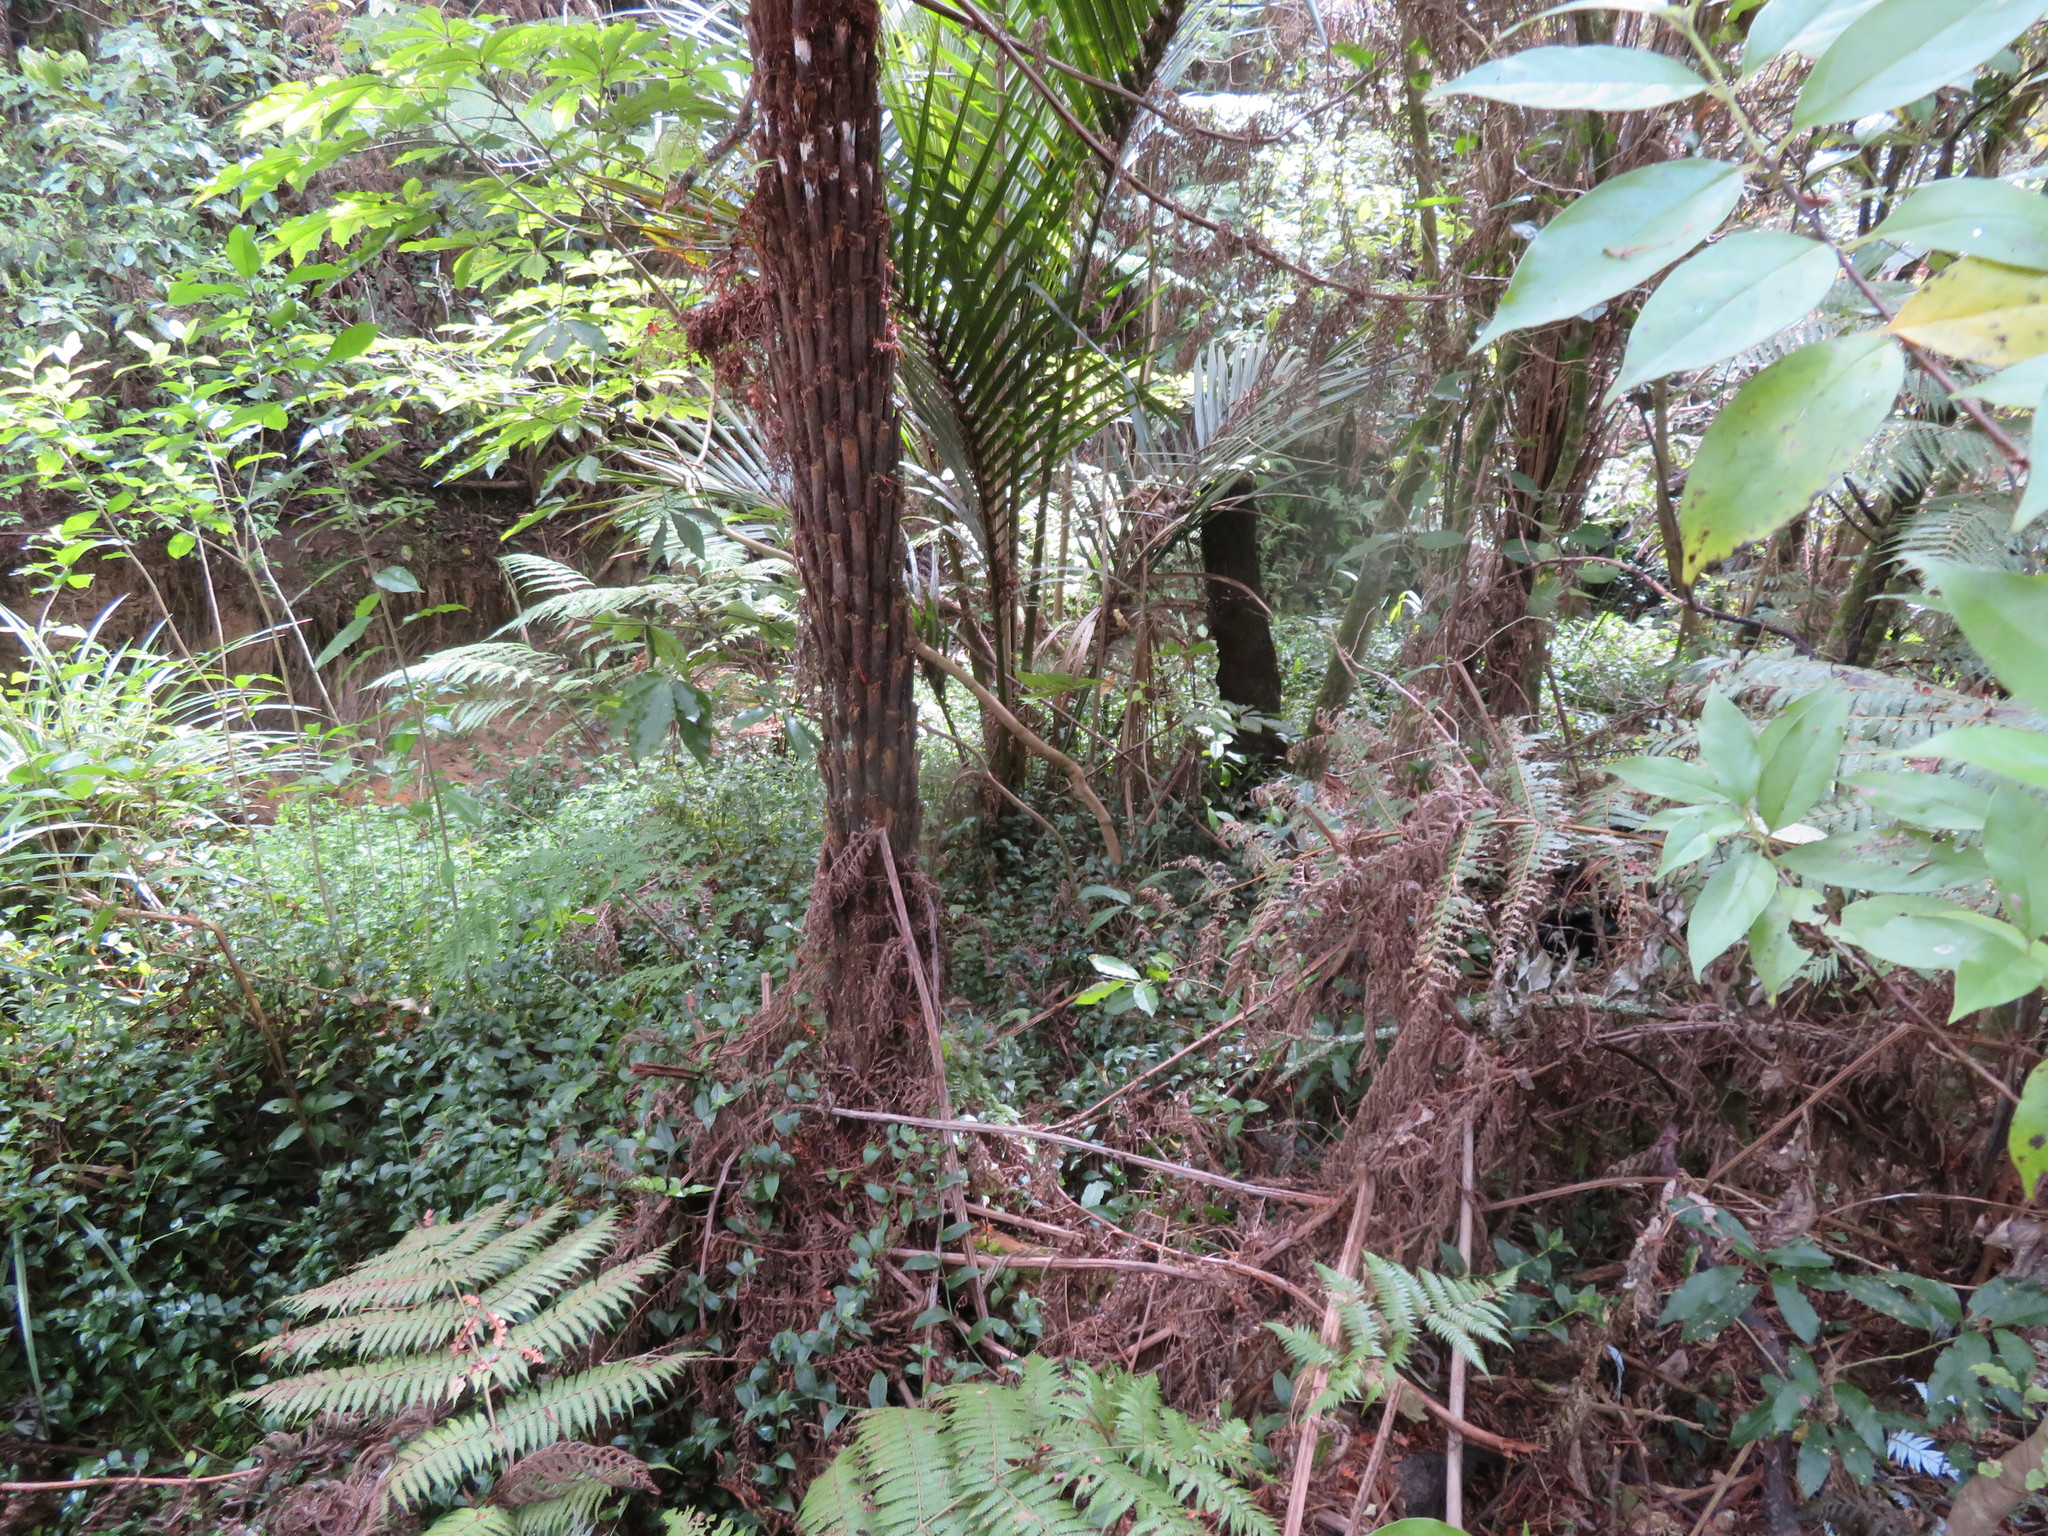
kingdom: Plantae
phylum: Tracheophyta
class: Liliopsida
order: Commelinales
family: Commelinaceae
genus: Tradescantia
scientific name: Tradescantia fluminensis
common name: Wandering-jew
